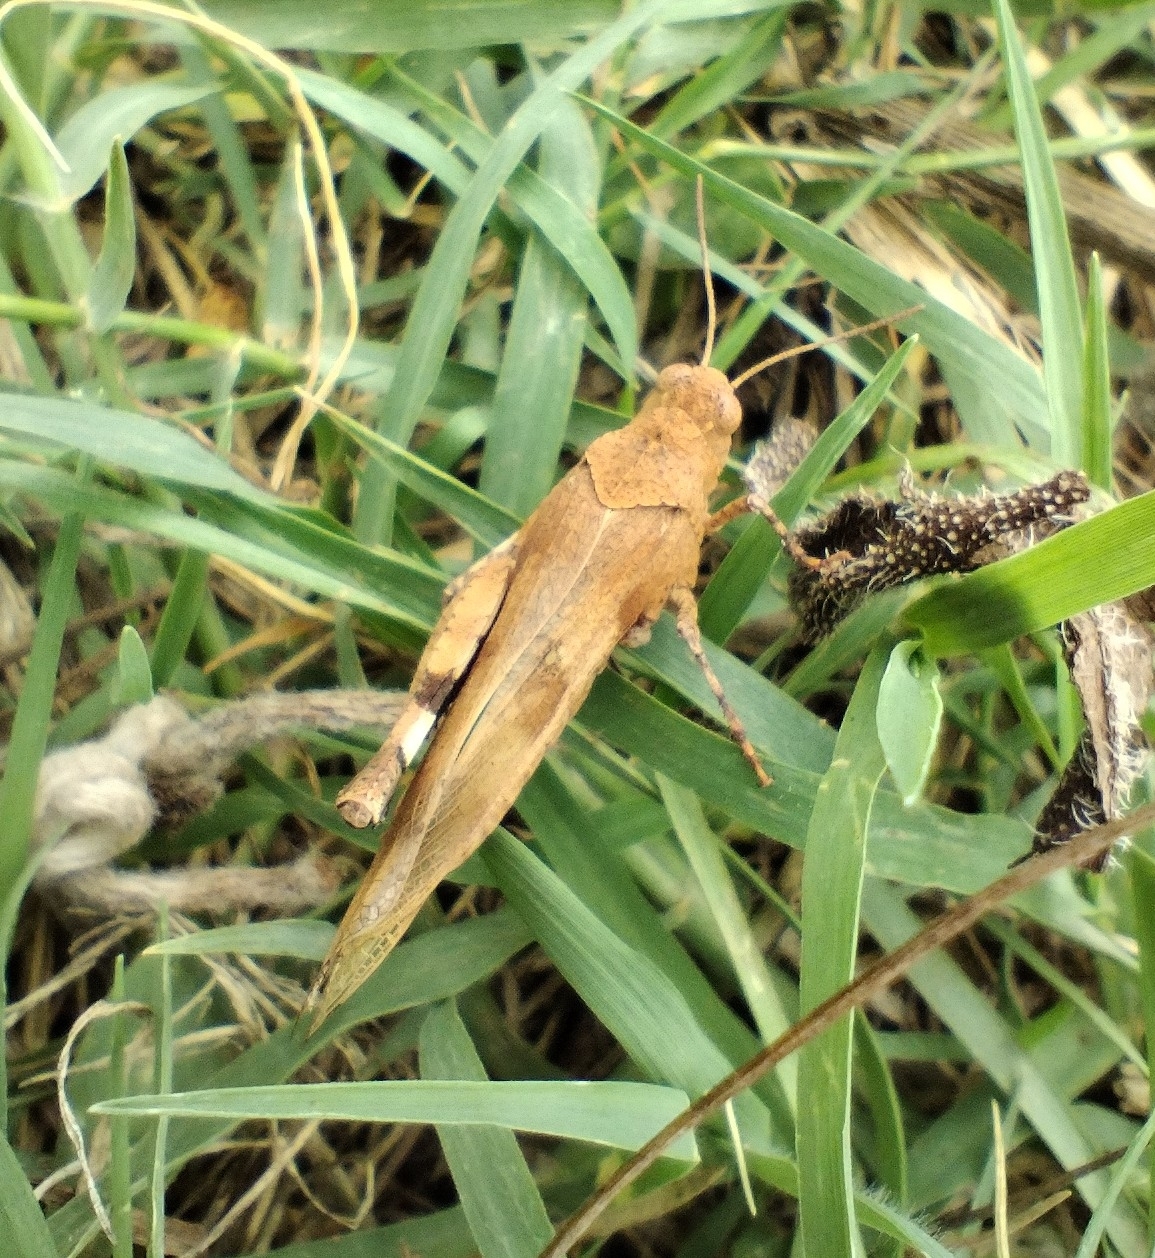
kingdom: Animalia
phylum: Arthropoda
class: Insecta
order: Orthoptera
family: Acrididae
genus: Oedipoda
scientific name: Oedipoda caerulescens
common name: Blue-winged grasshopper
